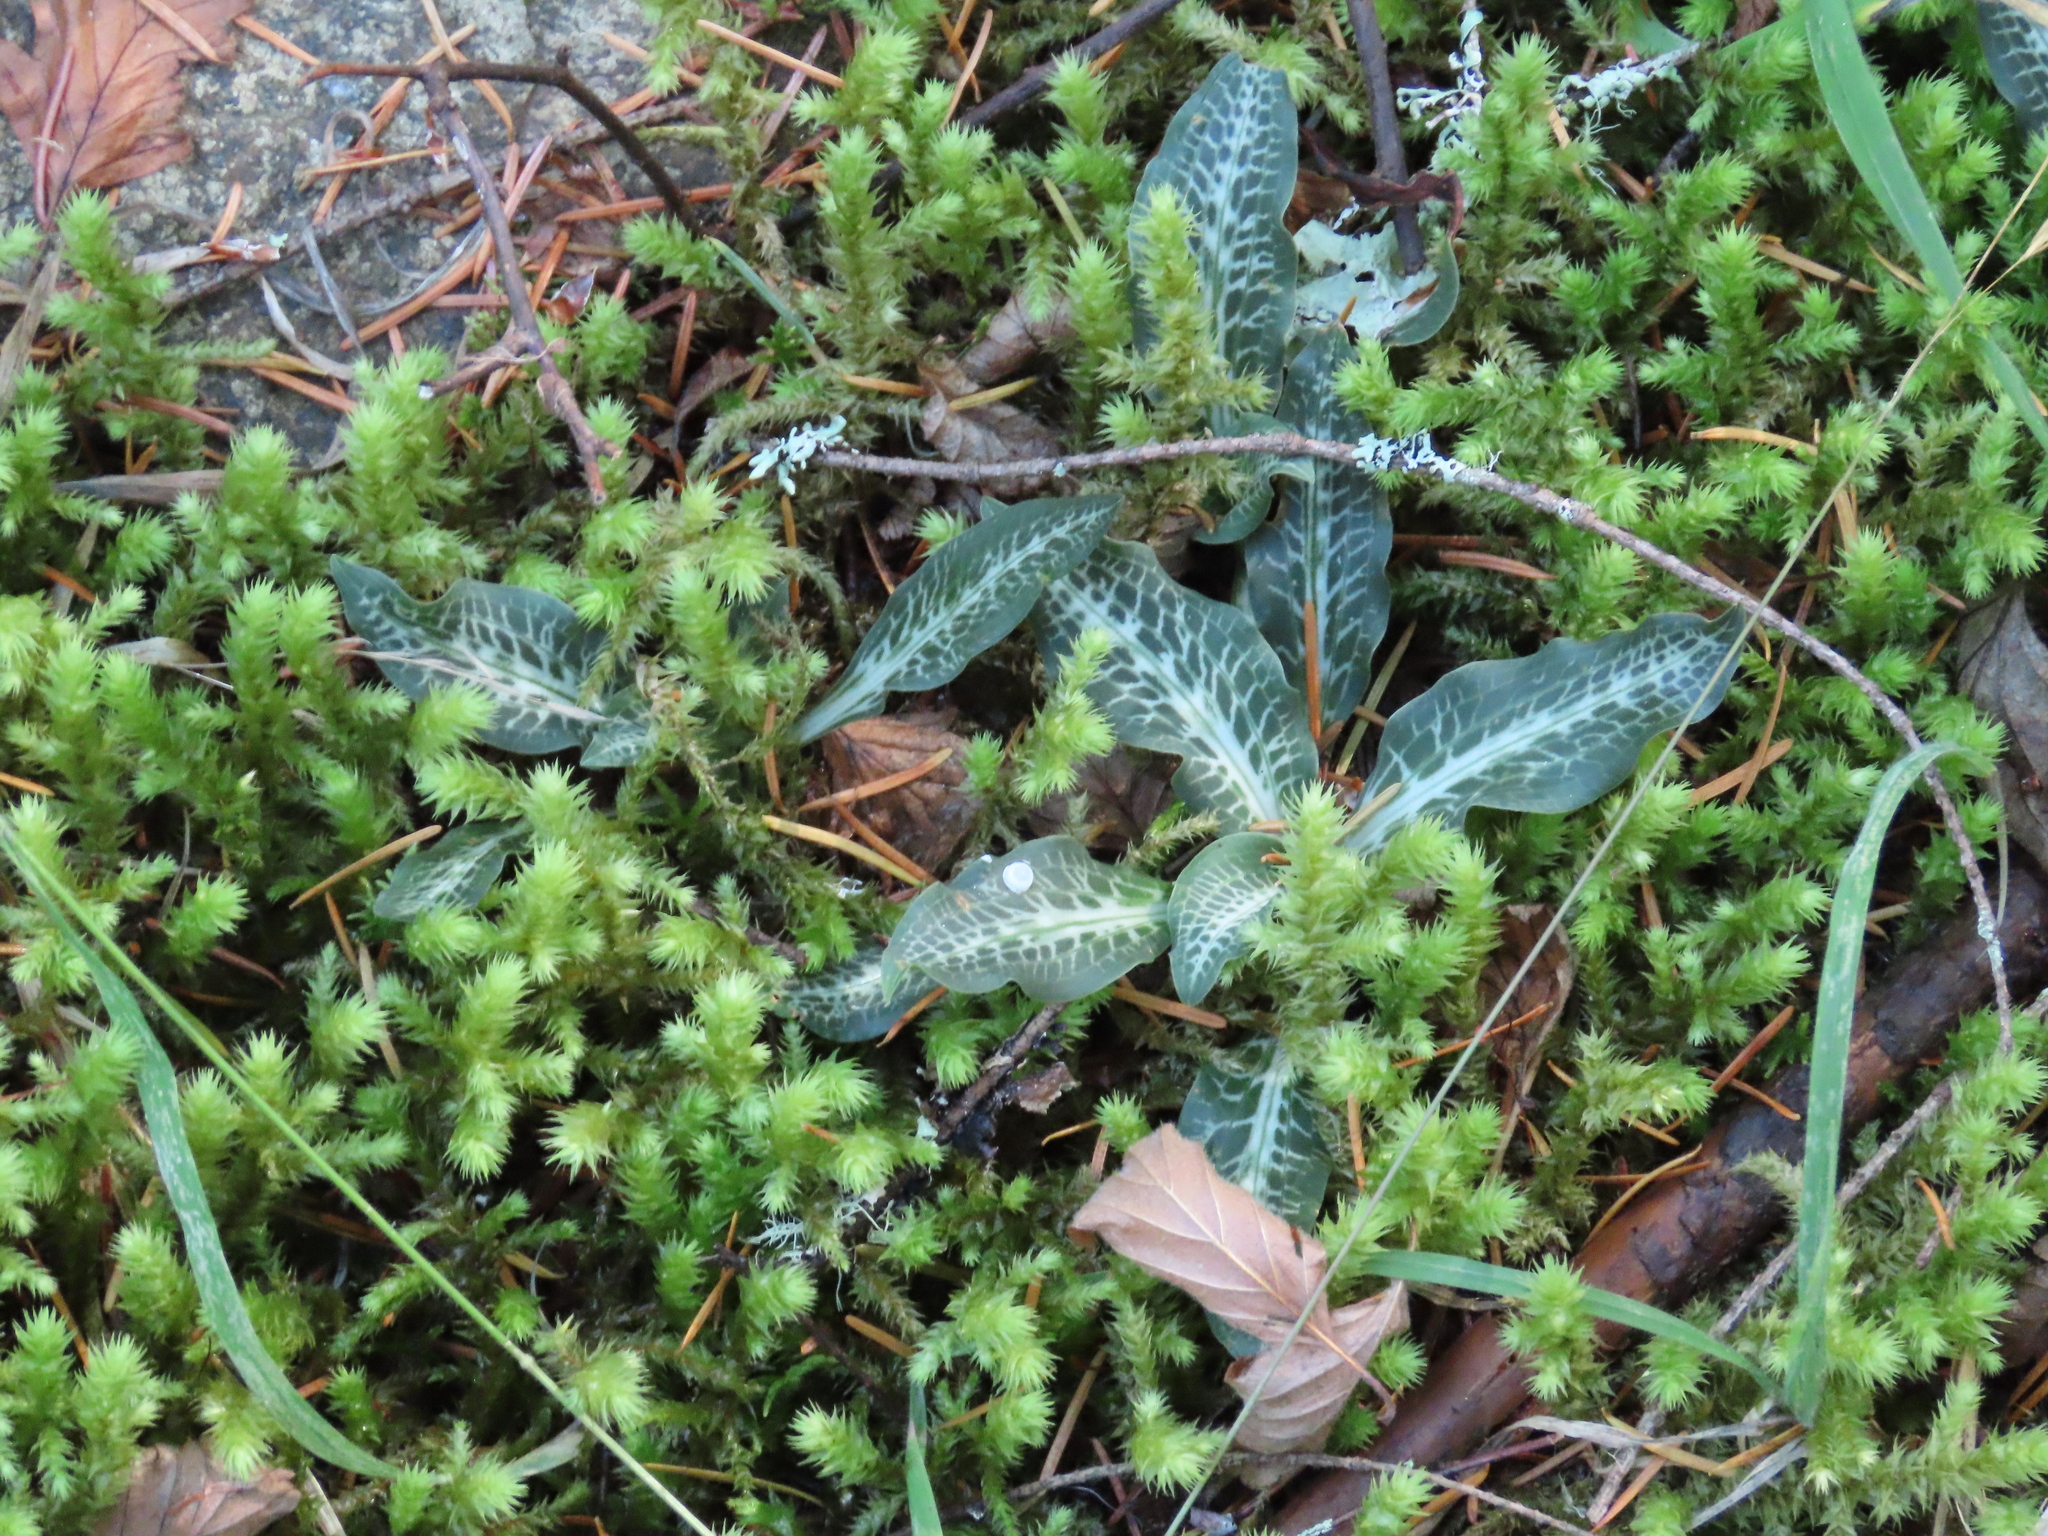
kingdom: Plantae
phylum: Tracheophyta
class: Liliopsida
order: Asparagales
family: Orchidaceae
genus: Goodyera
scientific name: Goodyera oblongifolia
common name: Giant rattlesnake-plantain
